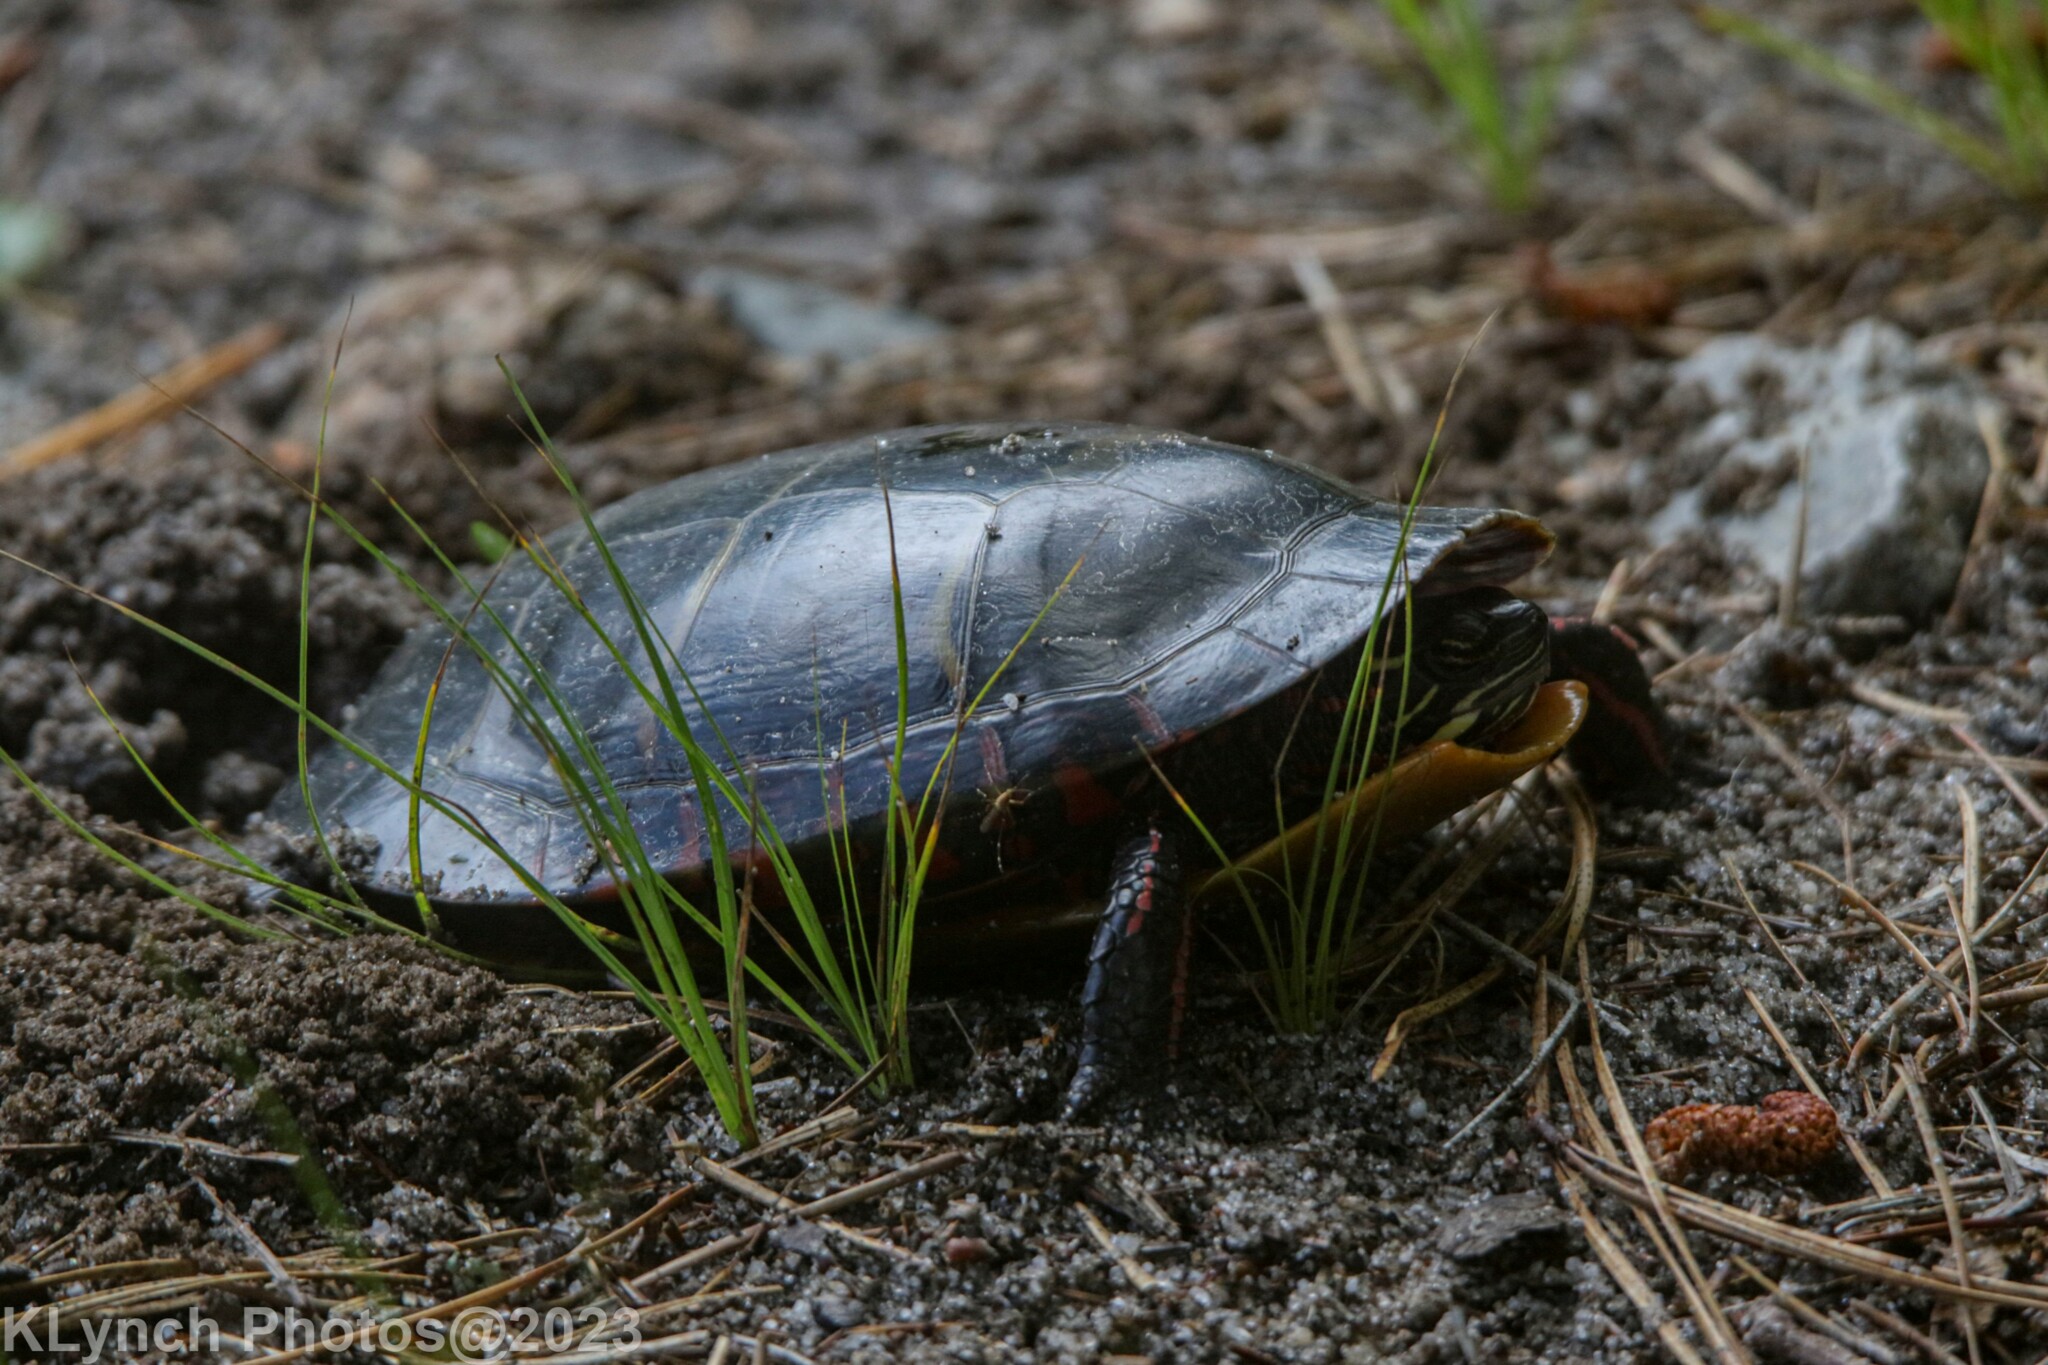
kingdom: Animalia
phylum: Chordata
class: Testudines
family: Emydidae
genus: Chrysemys
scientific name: Chrysemys picta
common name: Painted turtle
